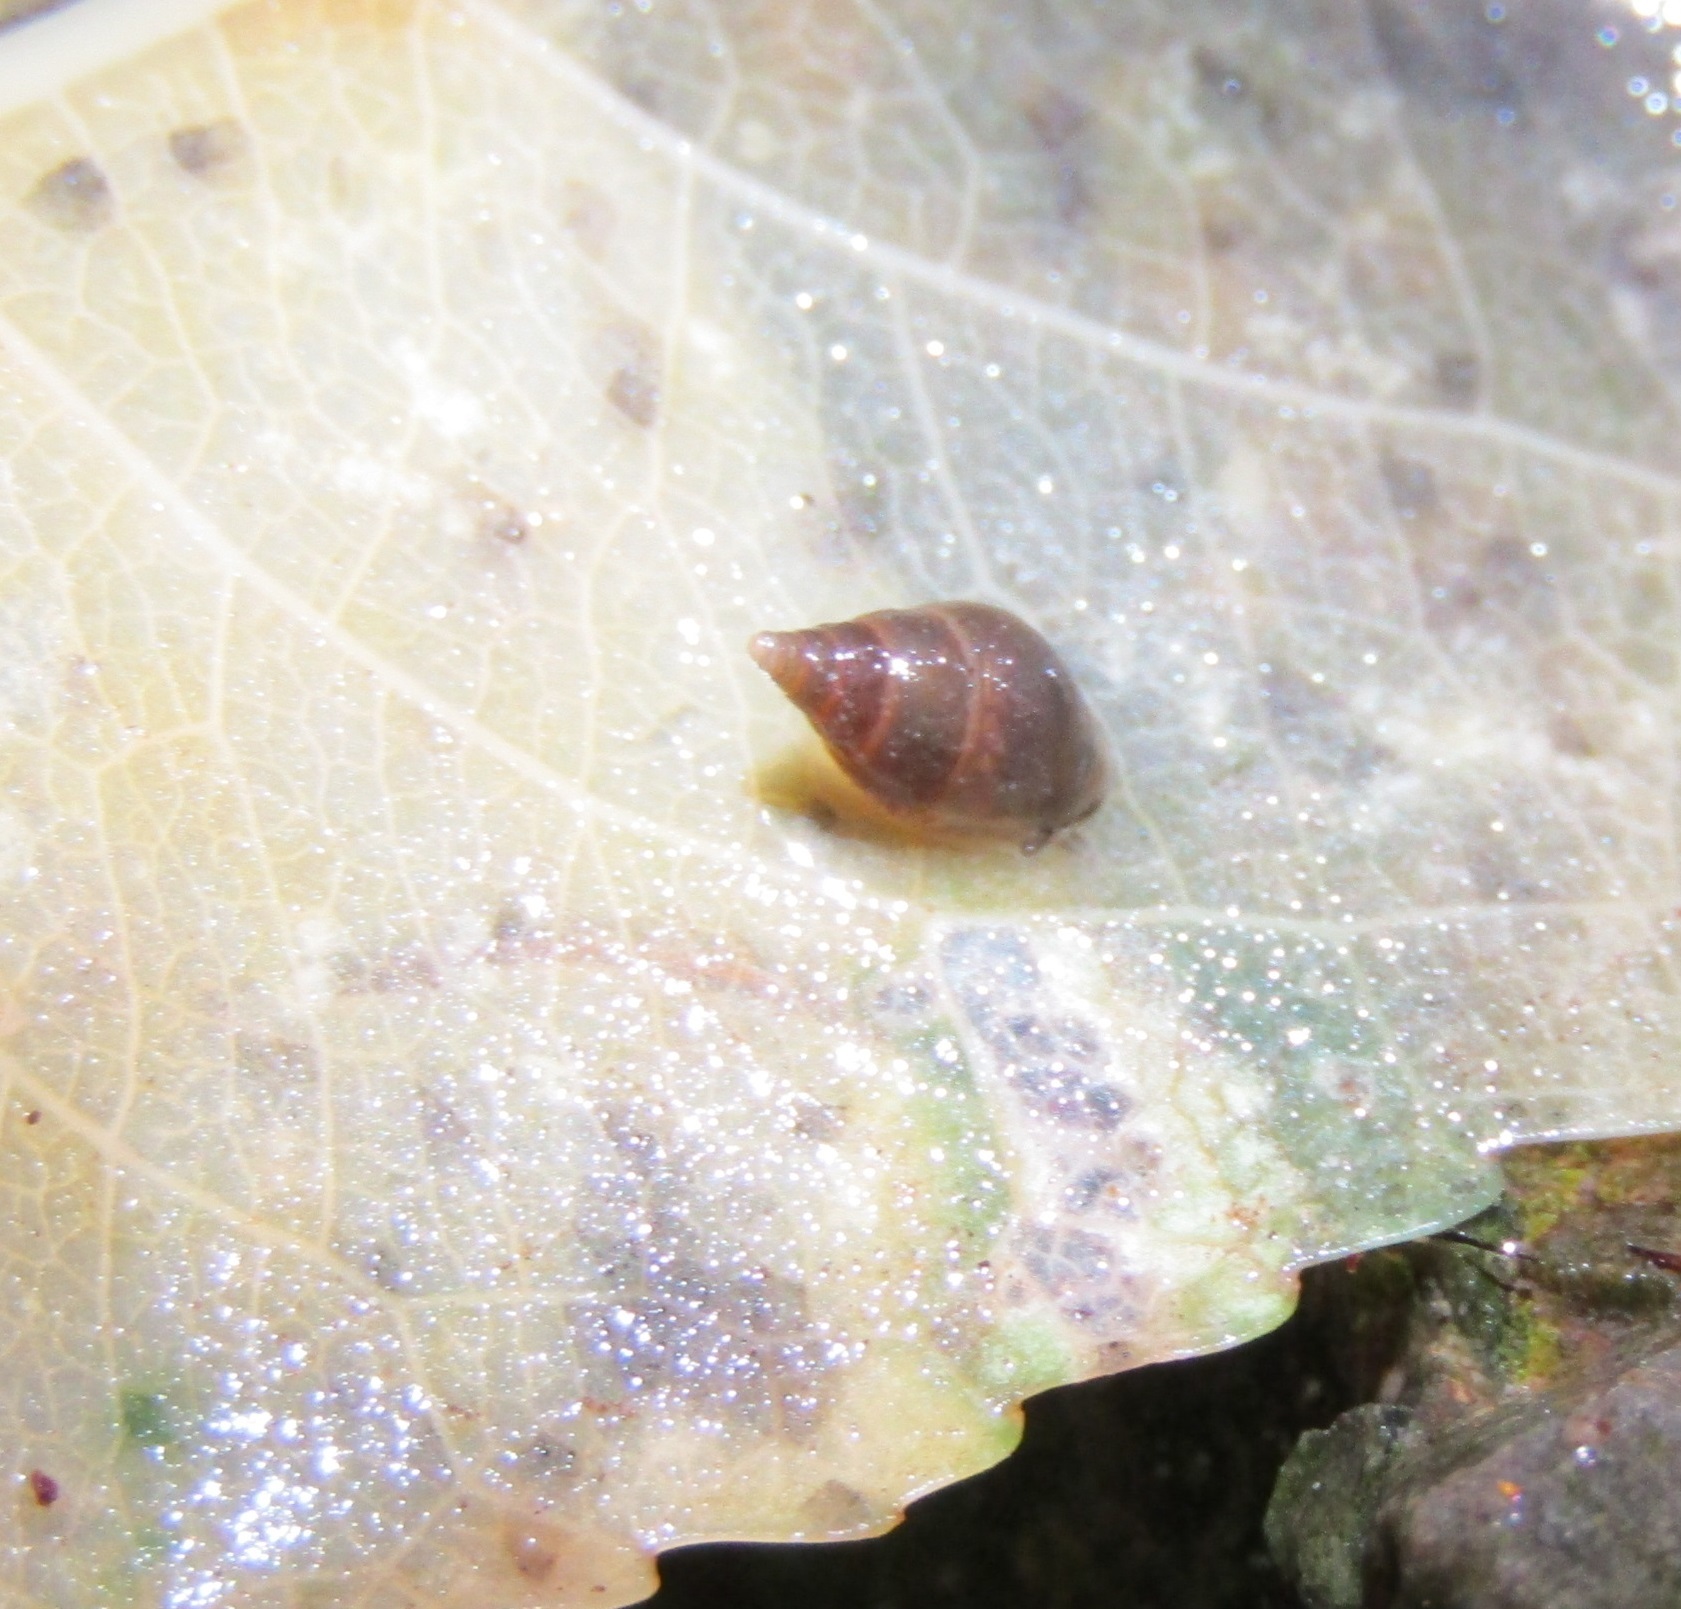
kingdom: Animalia
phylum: Mollusca
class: Gastropoda
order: Littorinimorpha
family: Tateidae
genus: Potamopyrgus
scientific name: Potamopyrgus antipodarum
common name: Jenkins' spire snail
